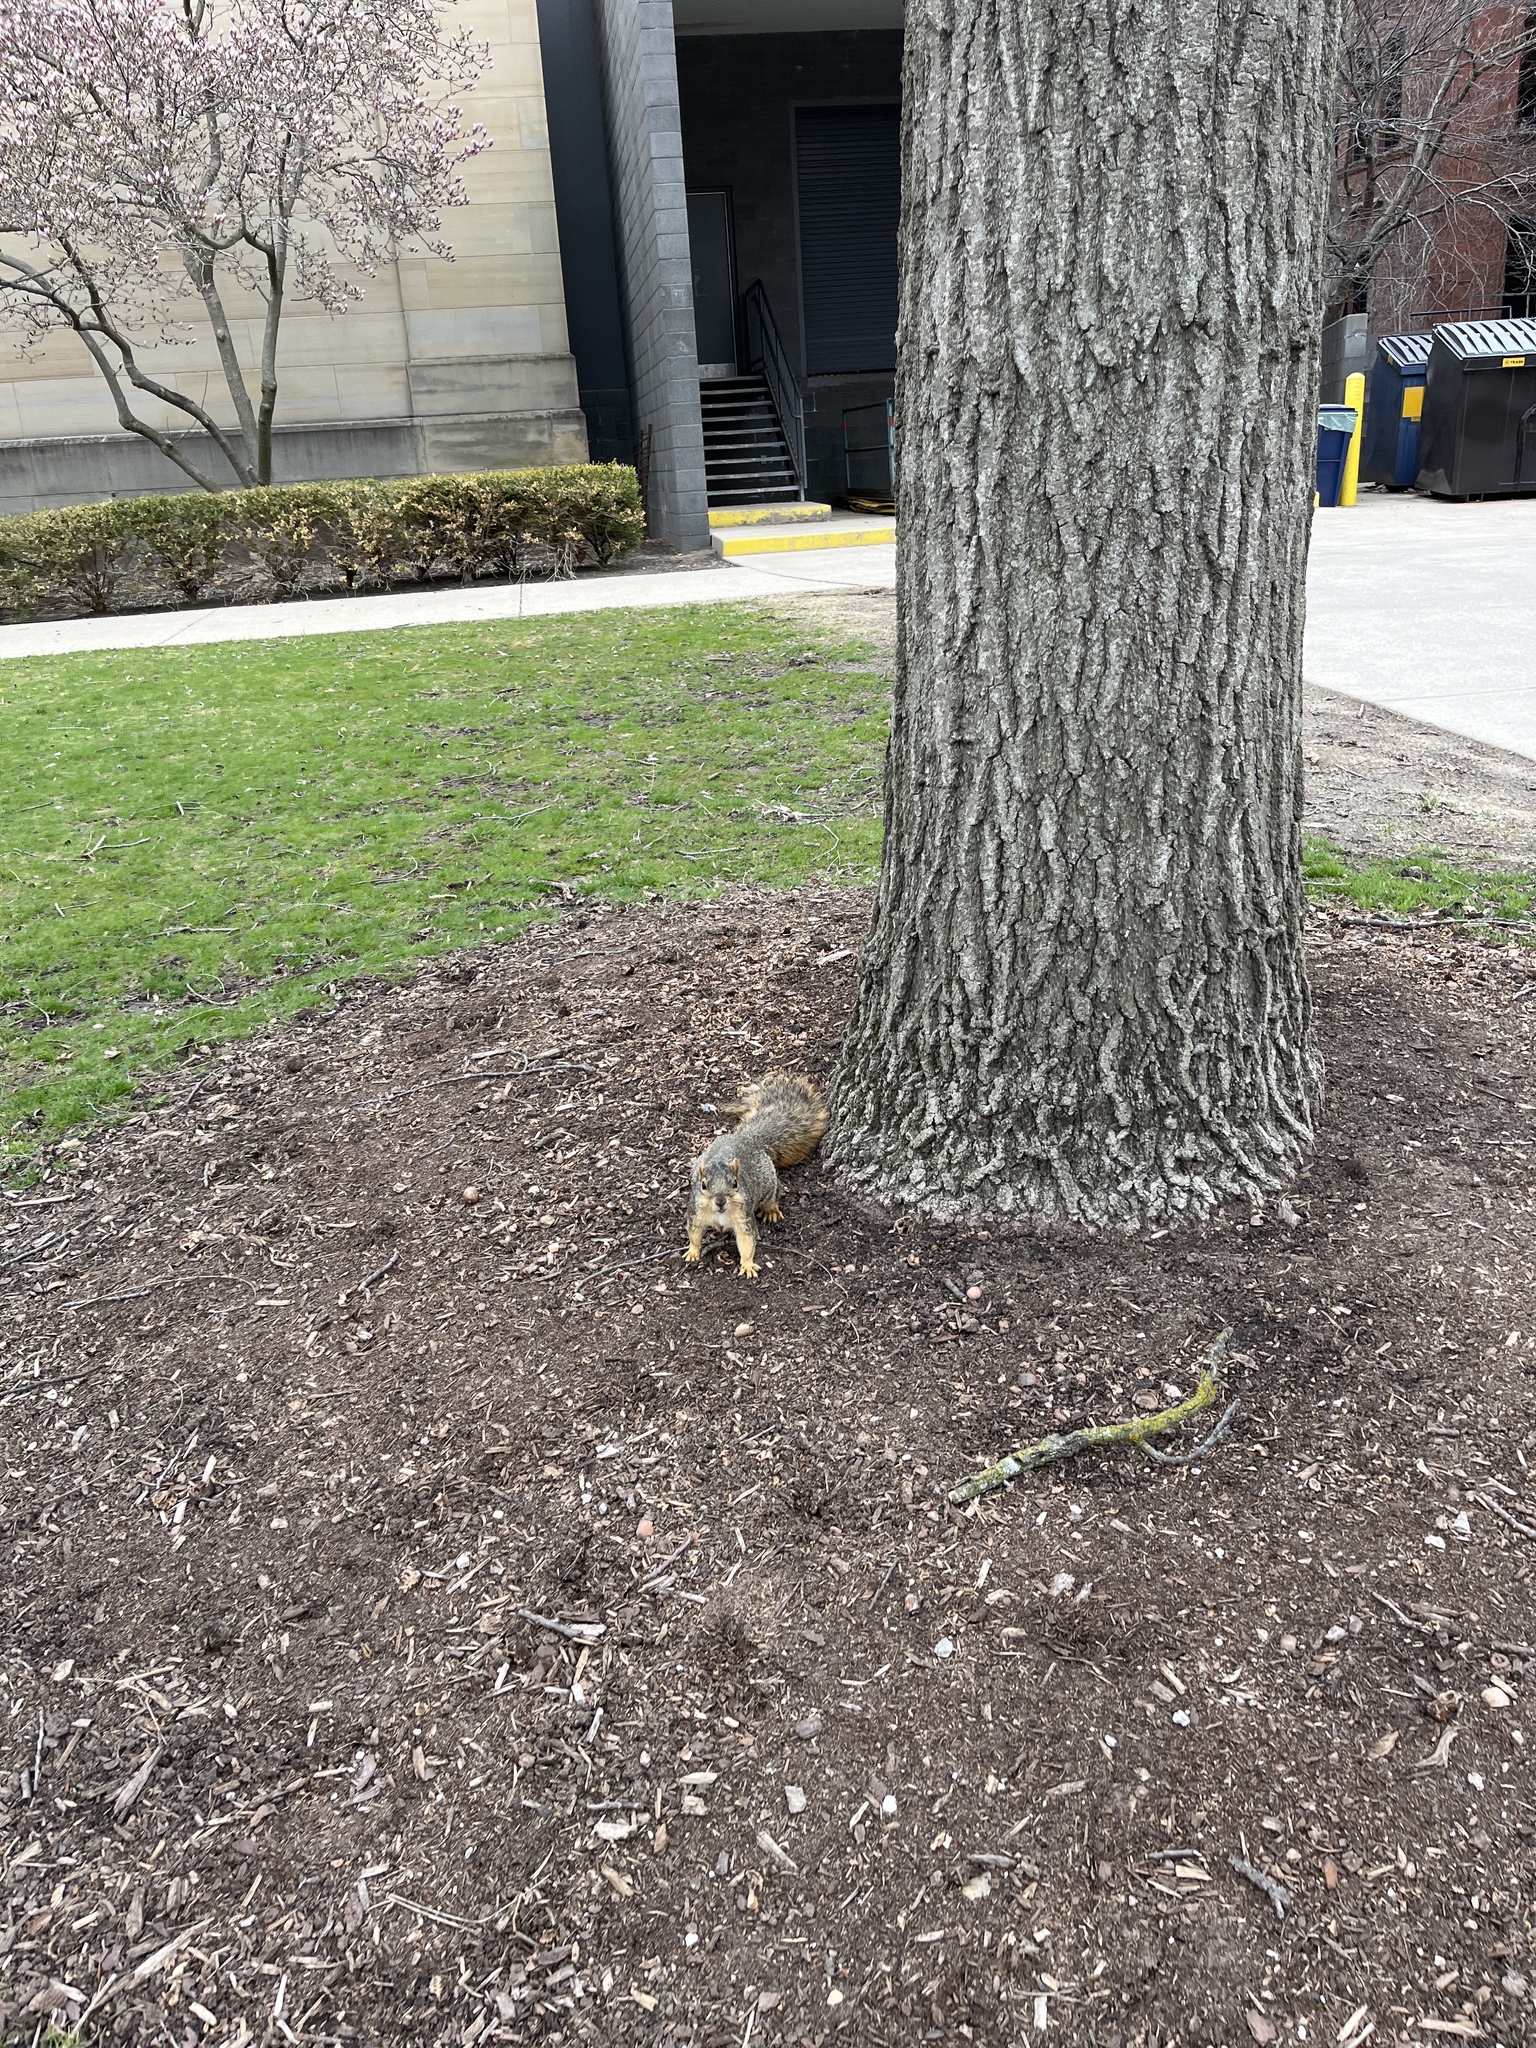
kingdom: Animalia
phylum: Chordata
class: Mammalia
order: Rodentia
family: Sciuridae
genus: Sciurus
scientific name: Sciurus niger
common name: Fox squirrel
